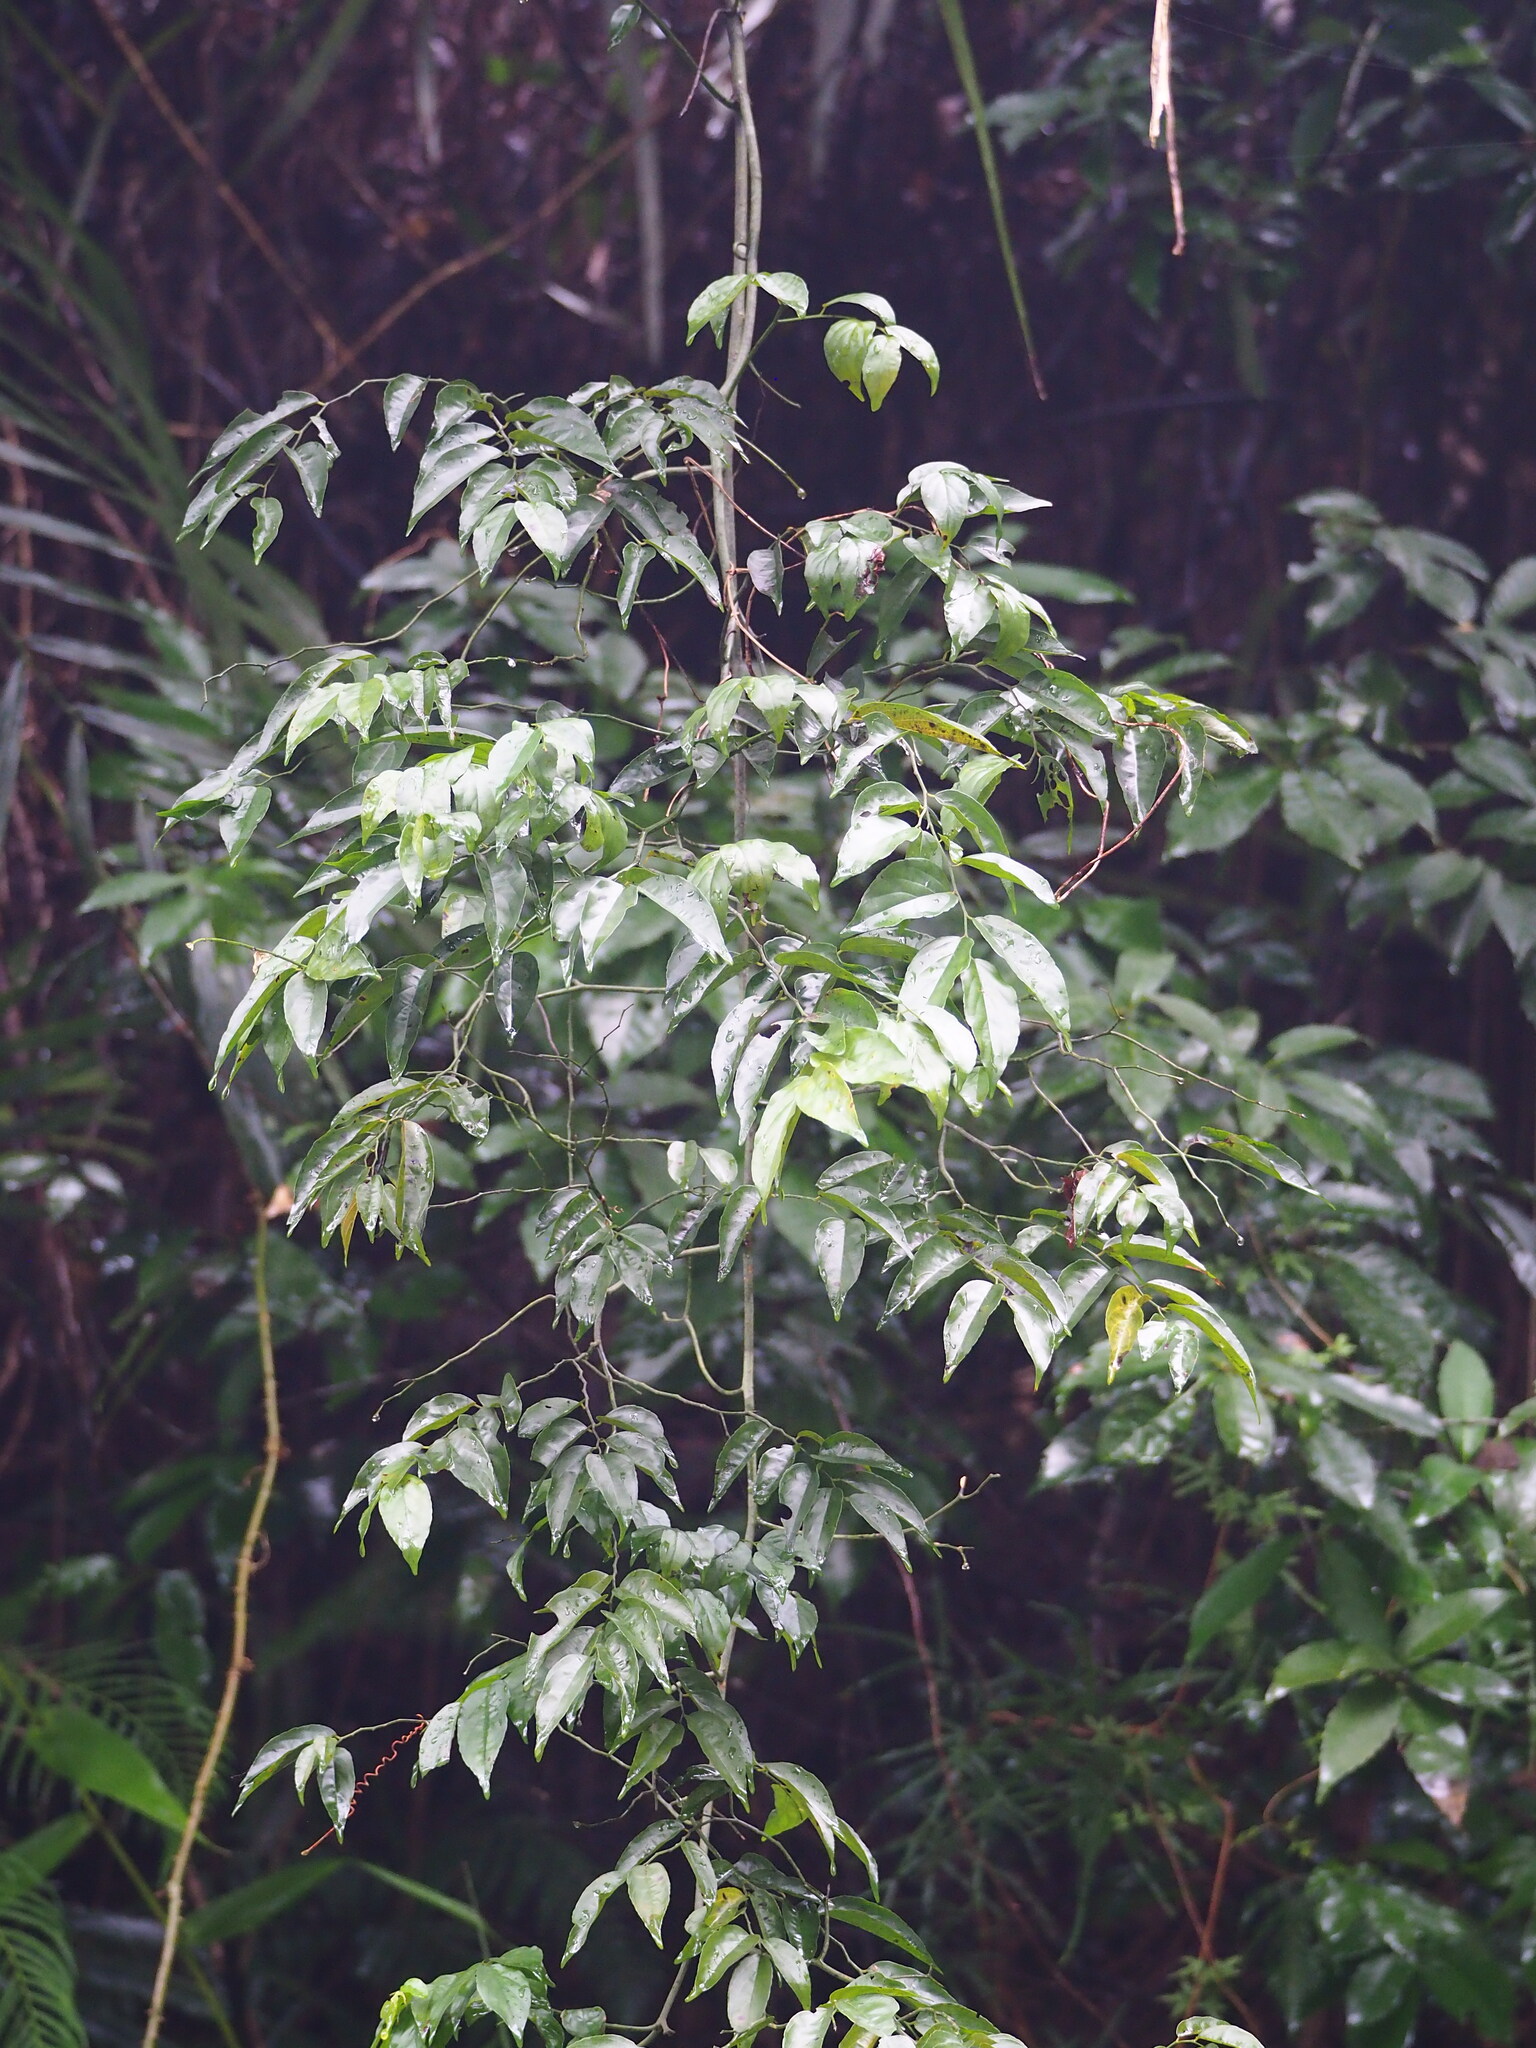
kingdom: Plantae
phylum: Tracheophyta
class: Magnoliopsida
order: Rosales
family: Rhamnaceae
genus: Ventilago
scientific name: Ventilago leiocarpa
